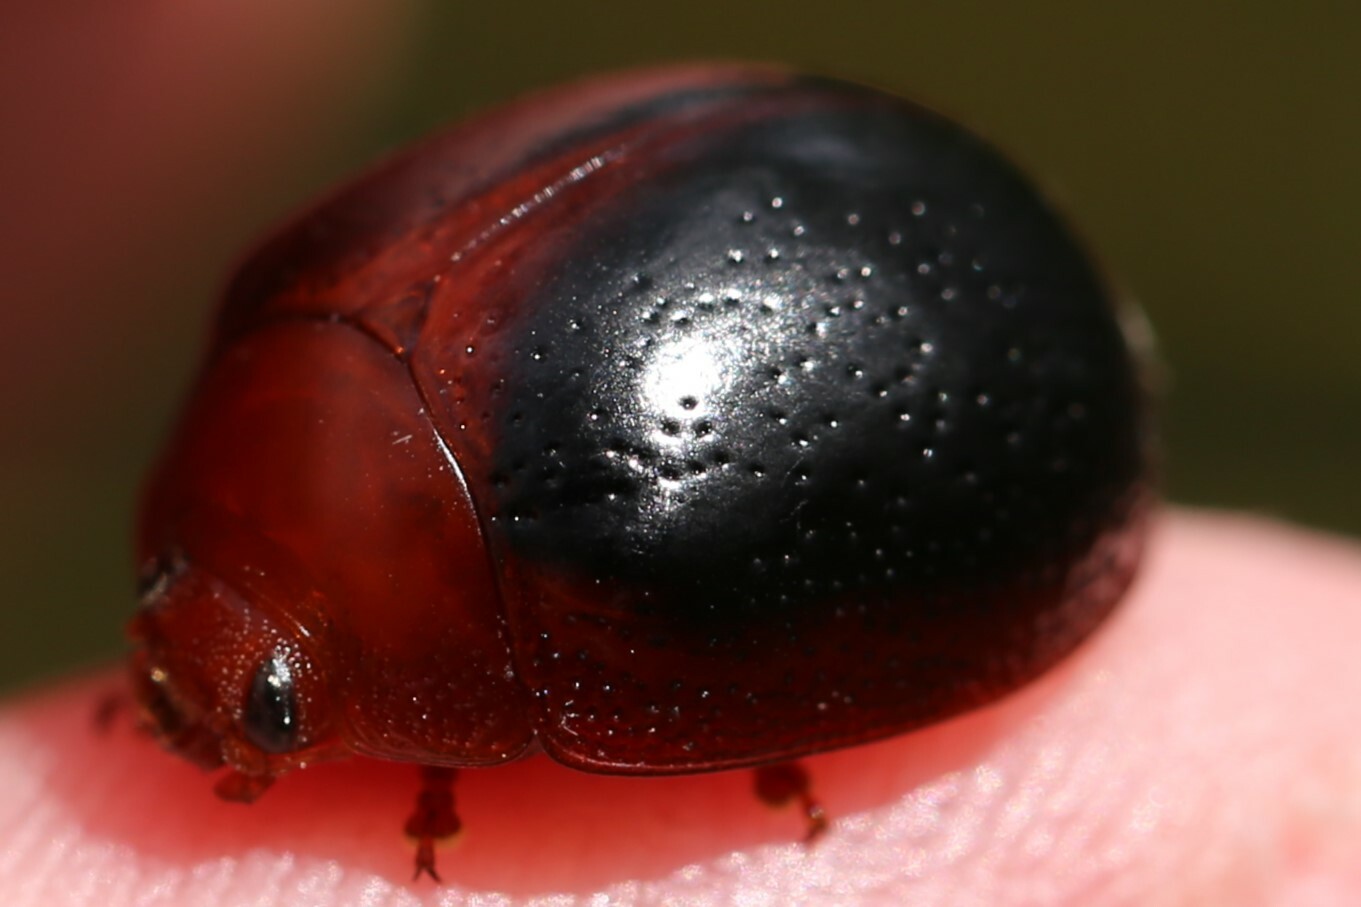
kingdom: Animalia
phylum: Arthropoda
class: Insecta
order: Coleoptera
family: Chrysomelidae
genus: Dicranosterna
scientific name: Dicranosterna
